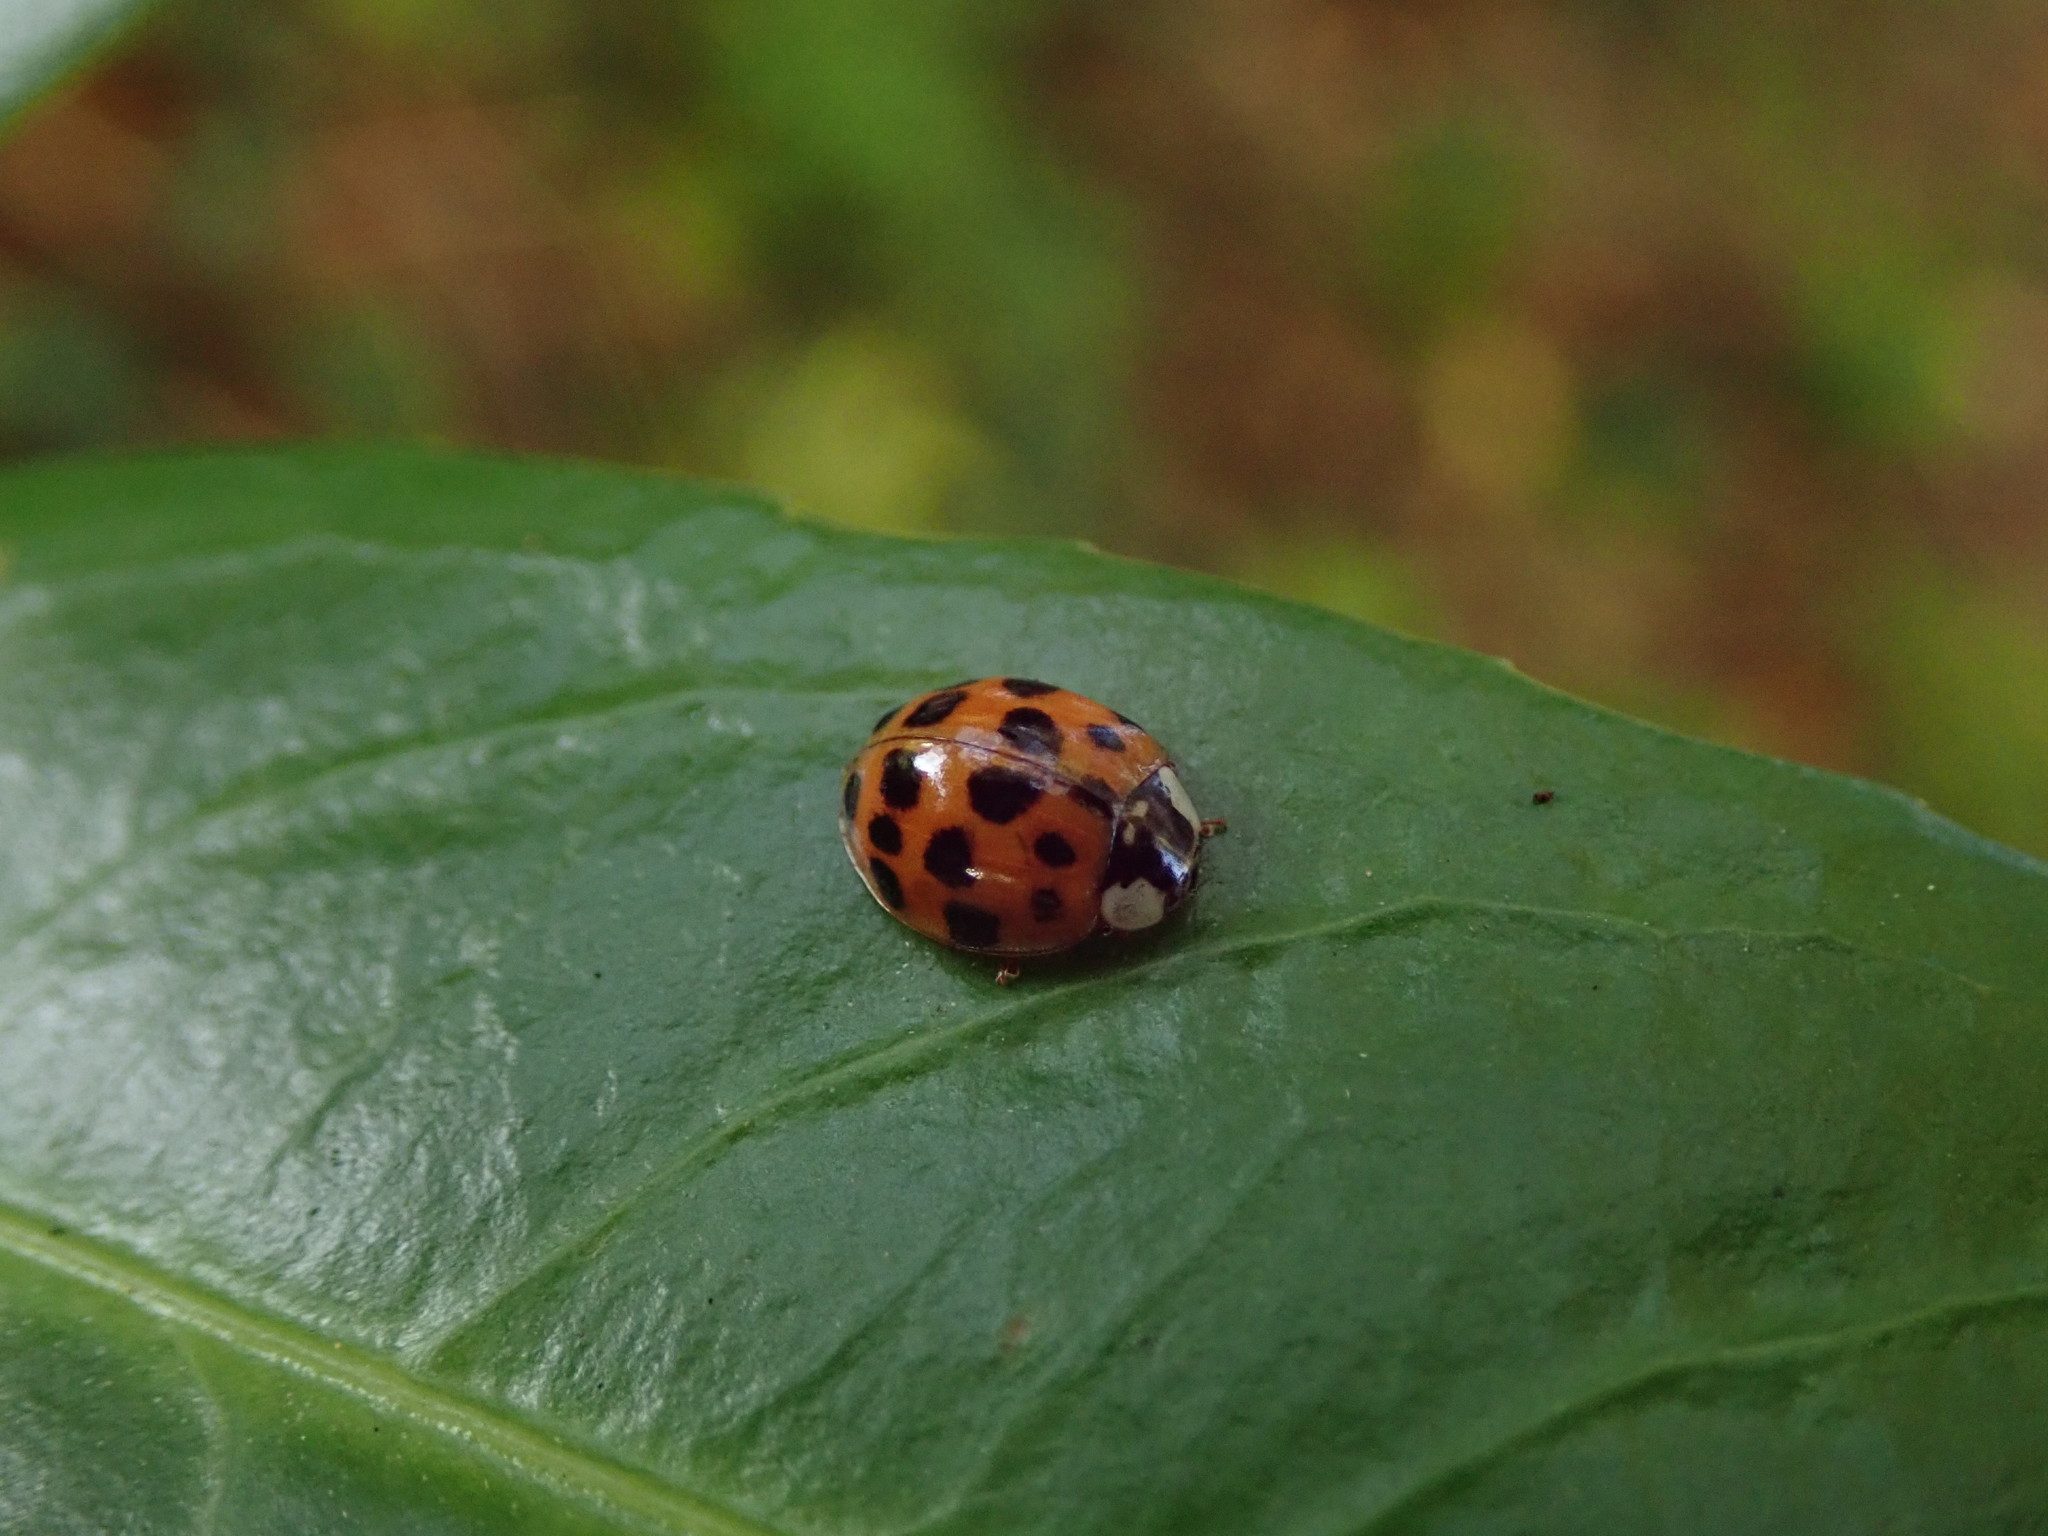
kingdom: Animalia
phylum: Arthropoda
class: Insecta
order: Coleoptera
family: Coccinellidae
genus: Harmonia
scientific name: Harmonia axyridis
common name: Harlequin ladybird
